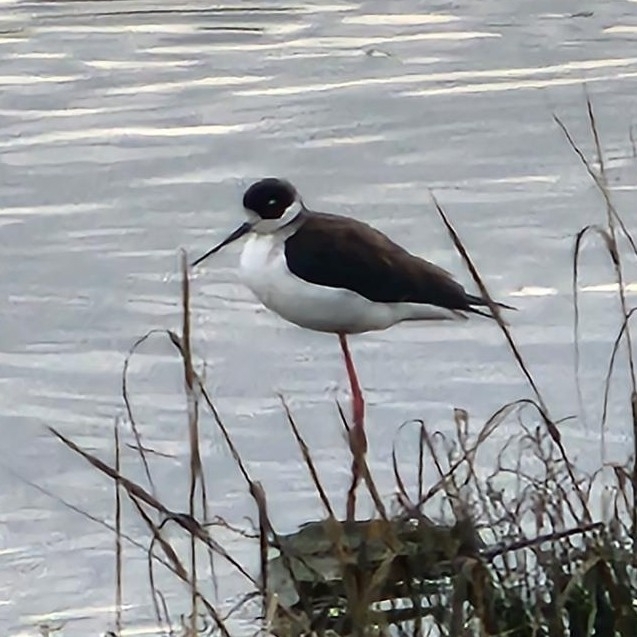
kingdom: Animalia
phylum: Chordata
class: Aves
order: Charadriiformes
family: Recurvirostridae
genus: Himantopus
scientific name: Himantopus mexicanus
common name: Black-necked stilt
